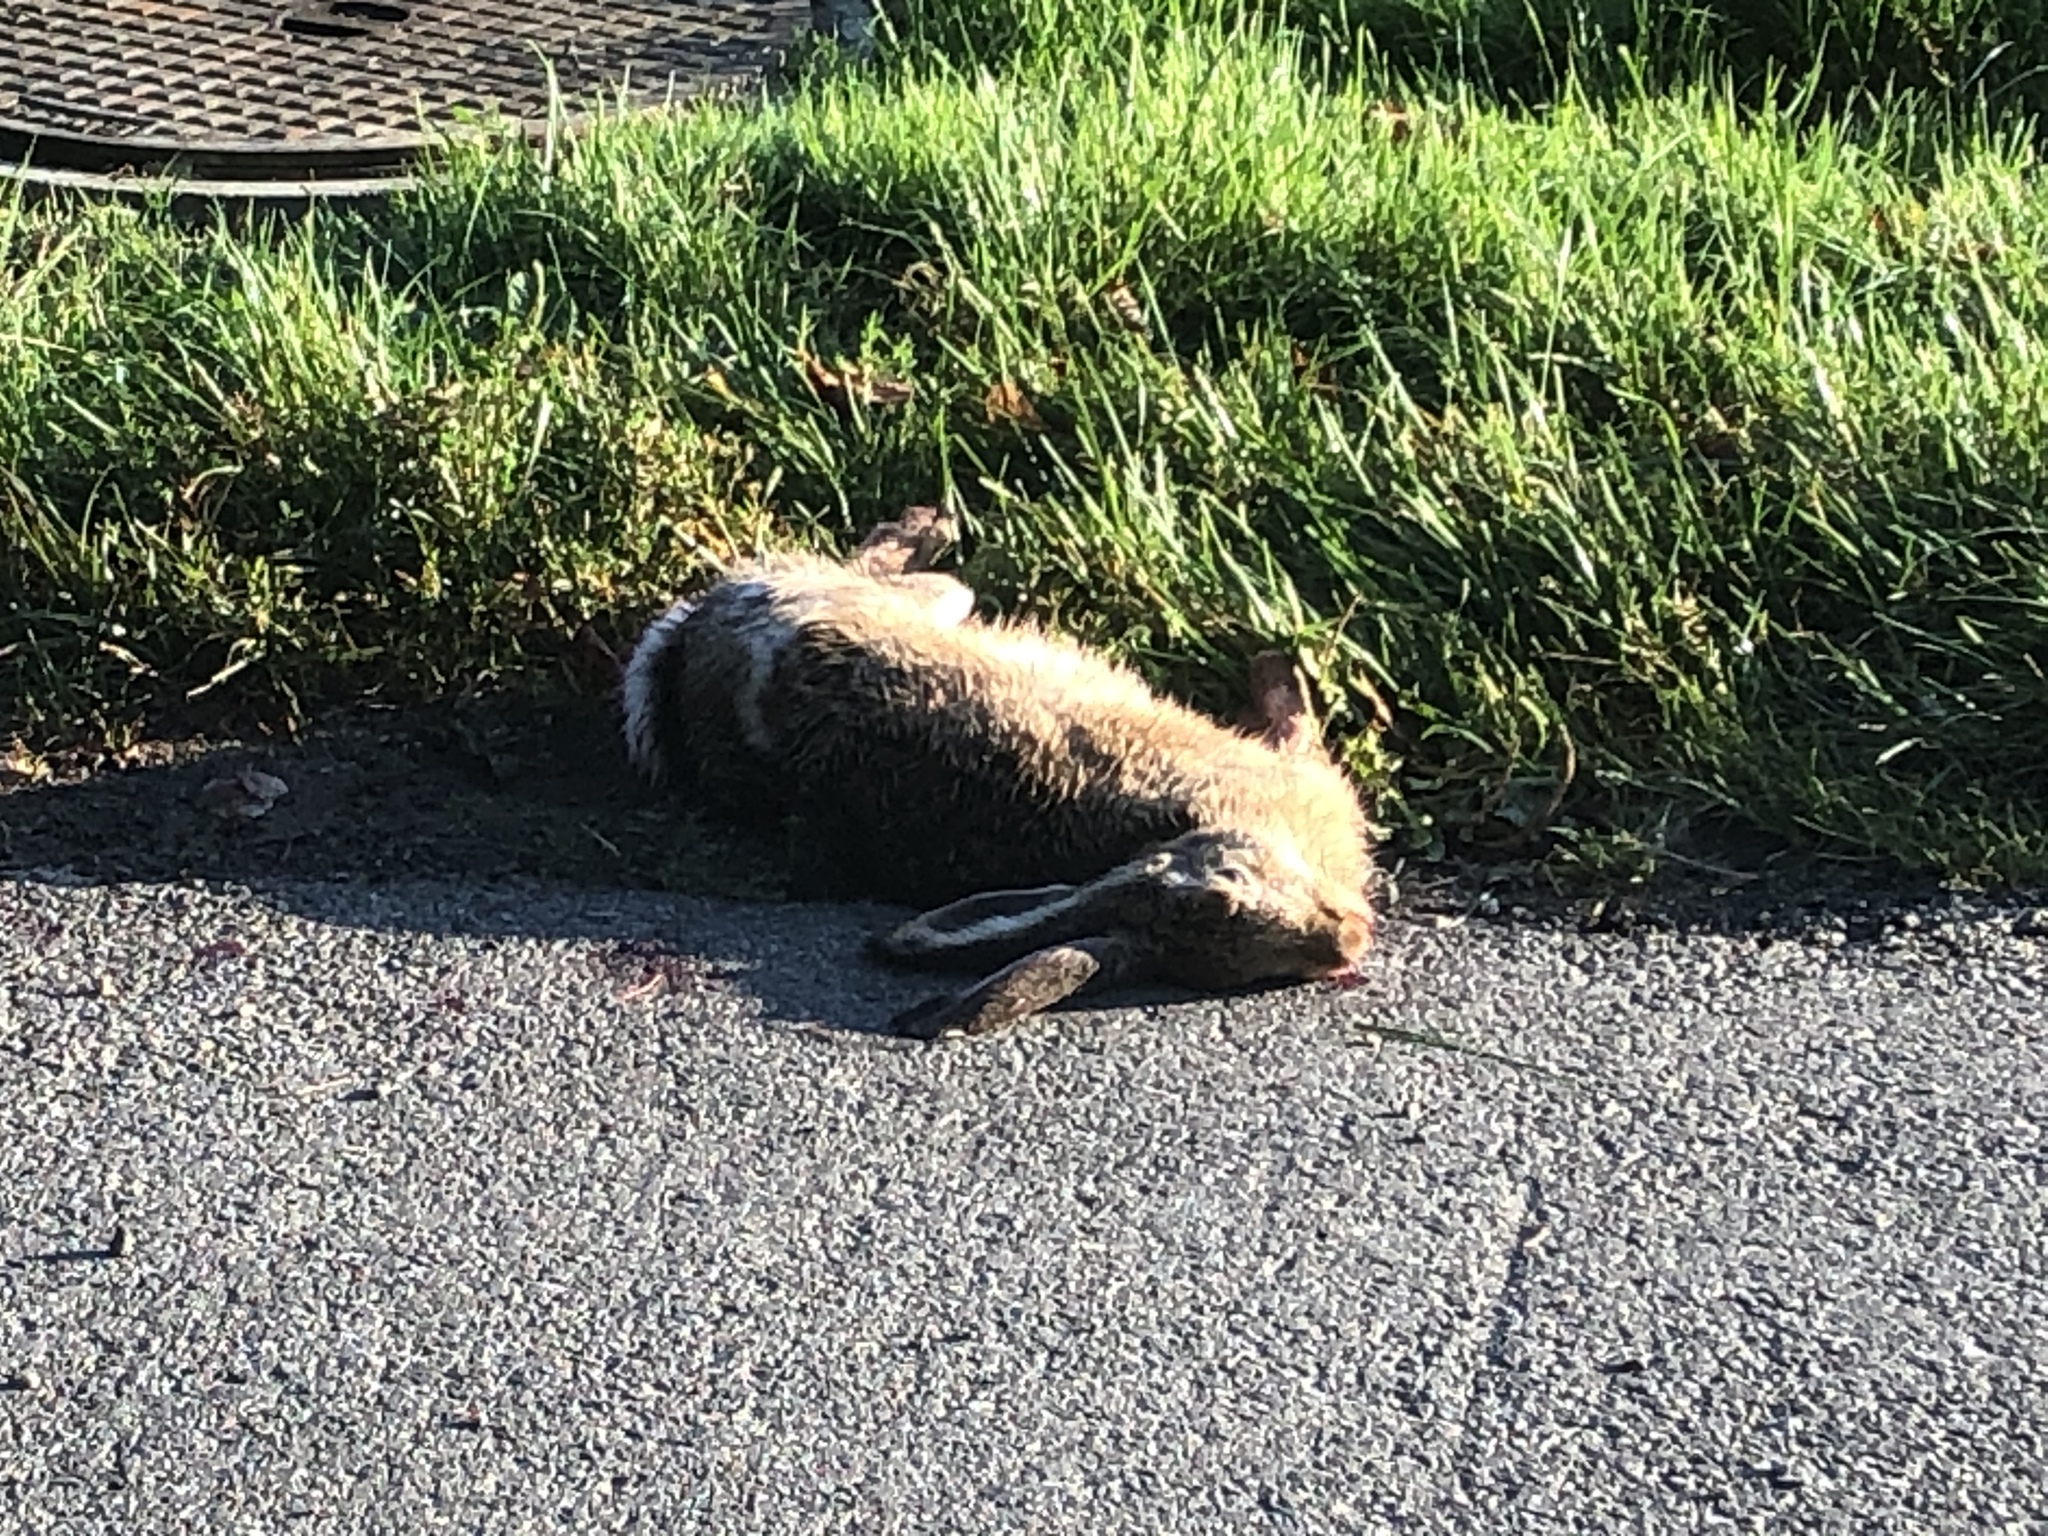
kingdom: Animalia
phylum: Chordata
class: Mammalia
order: Lagomorpha
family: Leporidae
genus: Lepus
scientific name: Lepus europaeus
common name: European hare
